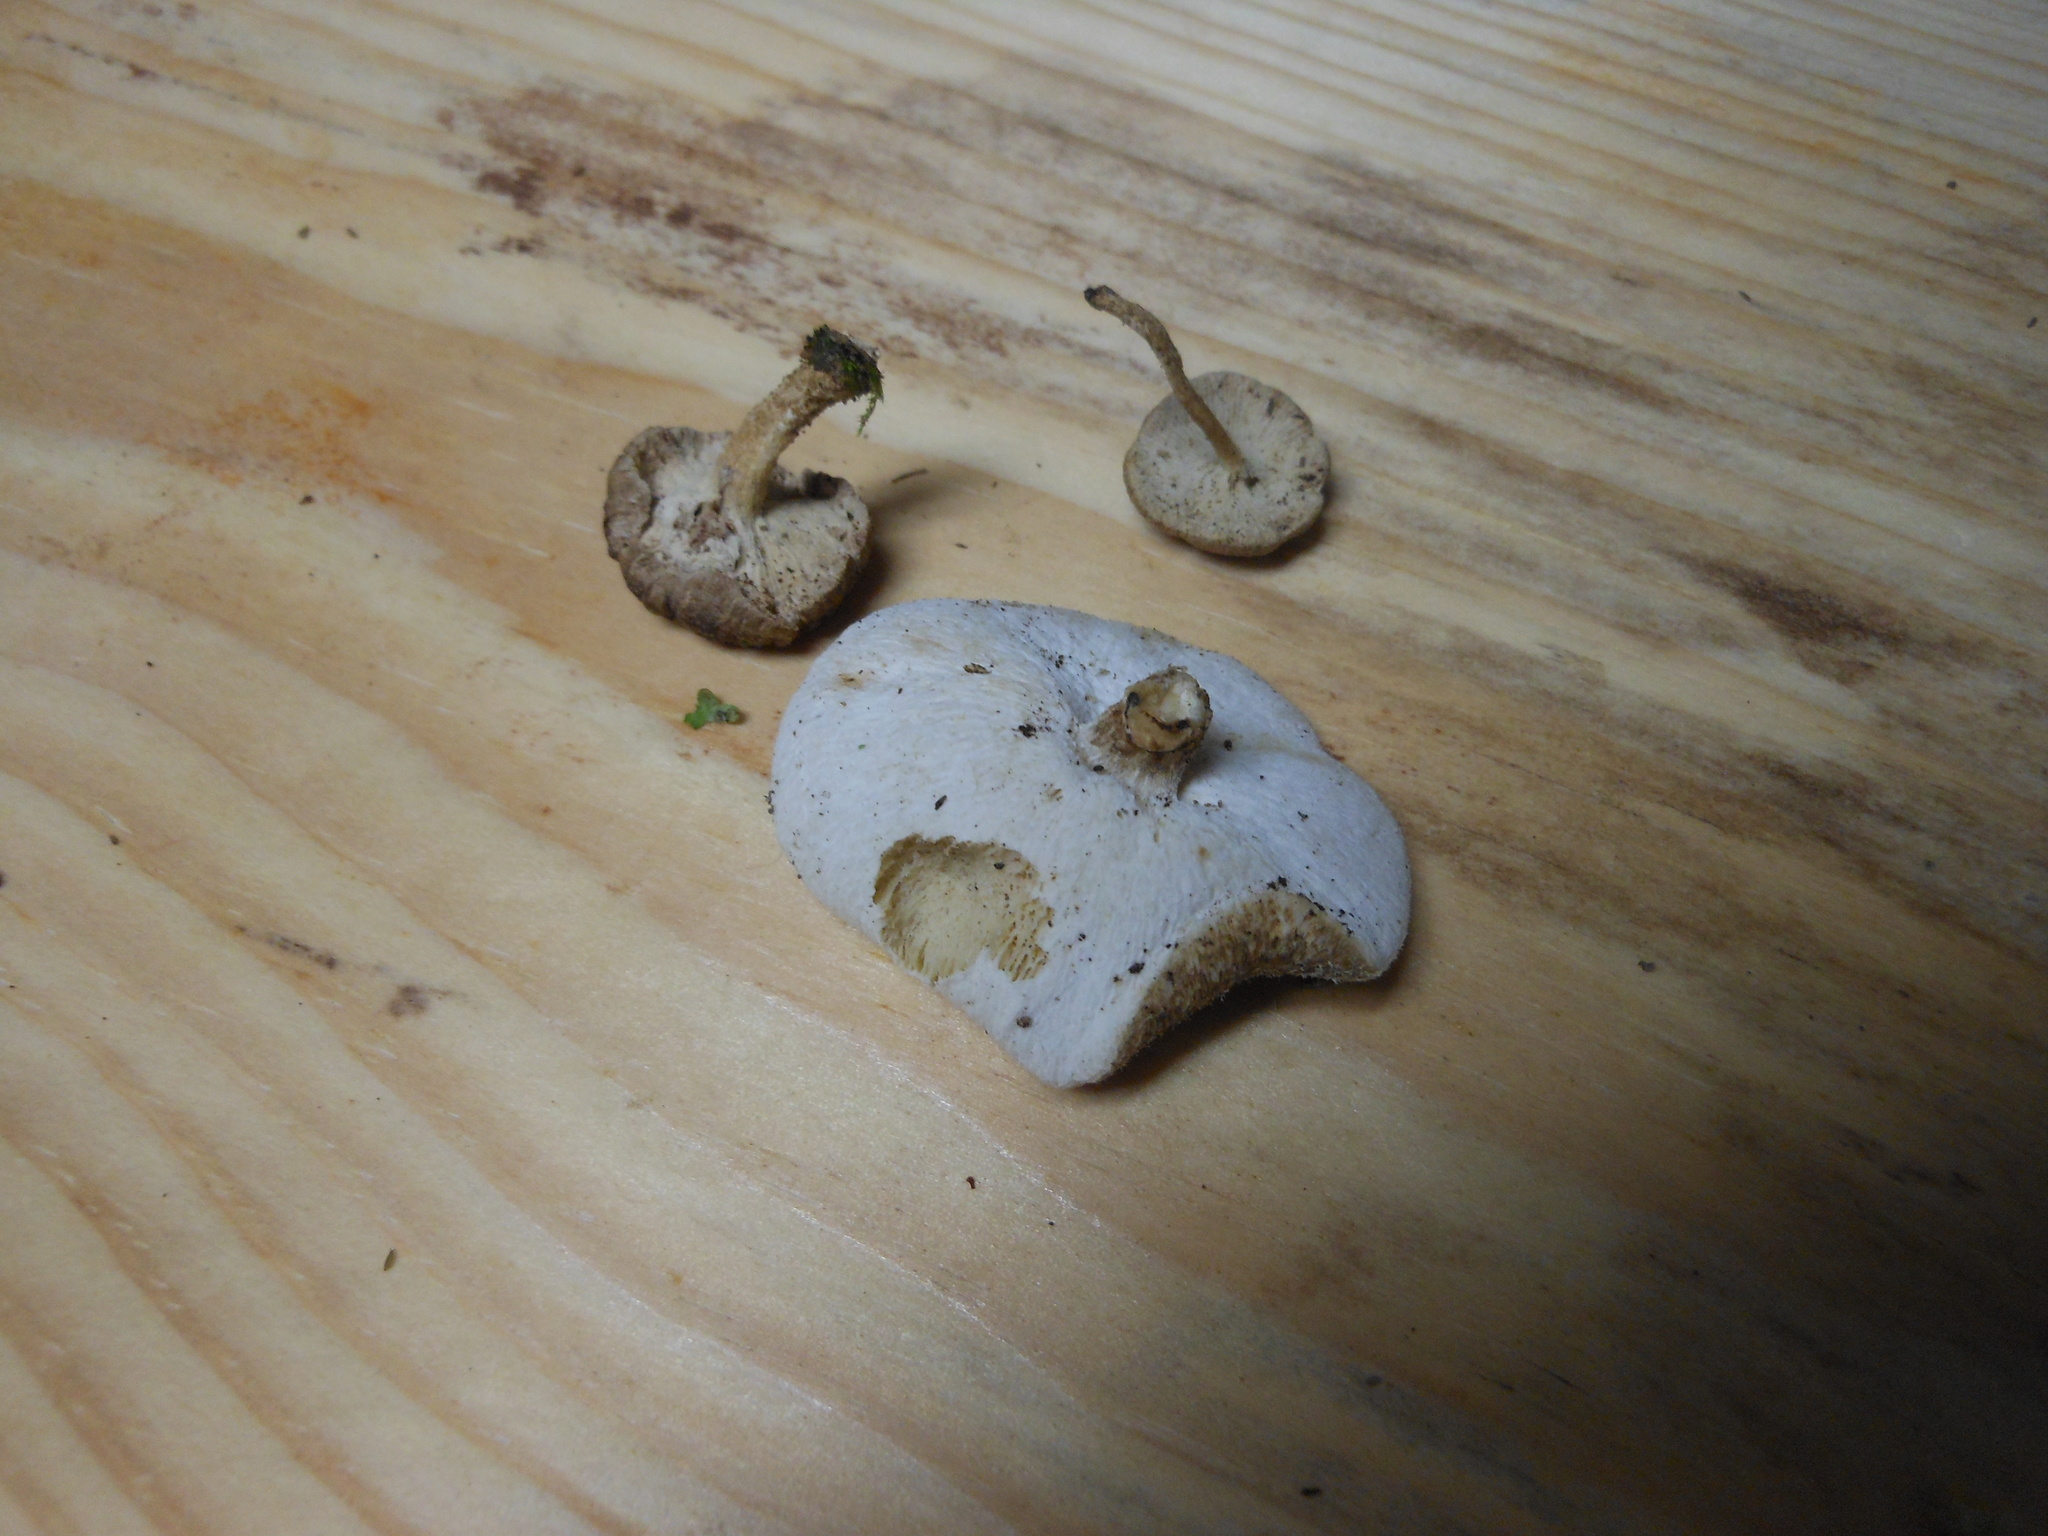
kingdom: Fungi
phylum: Basidiomycota
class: Agaricomycetes
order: Polyporales
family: Polyporaceae
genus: Lentinus
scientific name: Lentinus tigrinus
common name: Tiger sawgill
